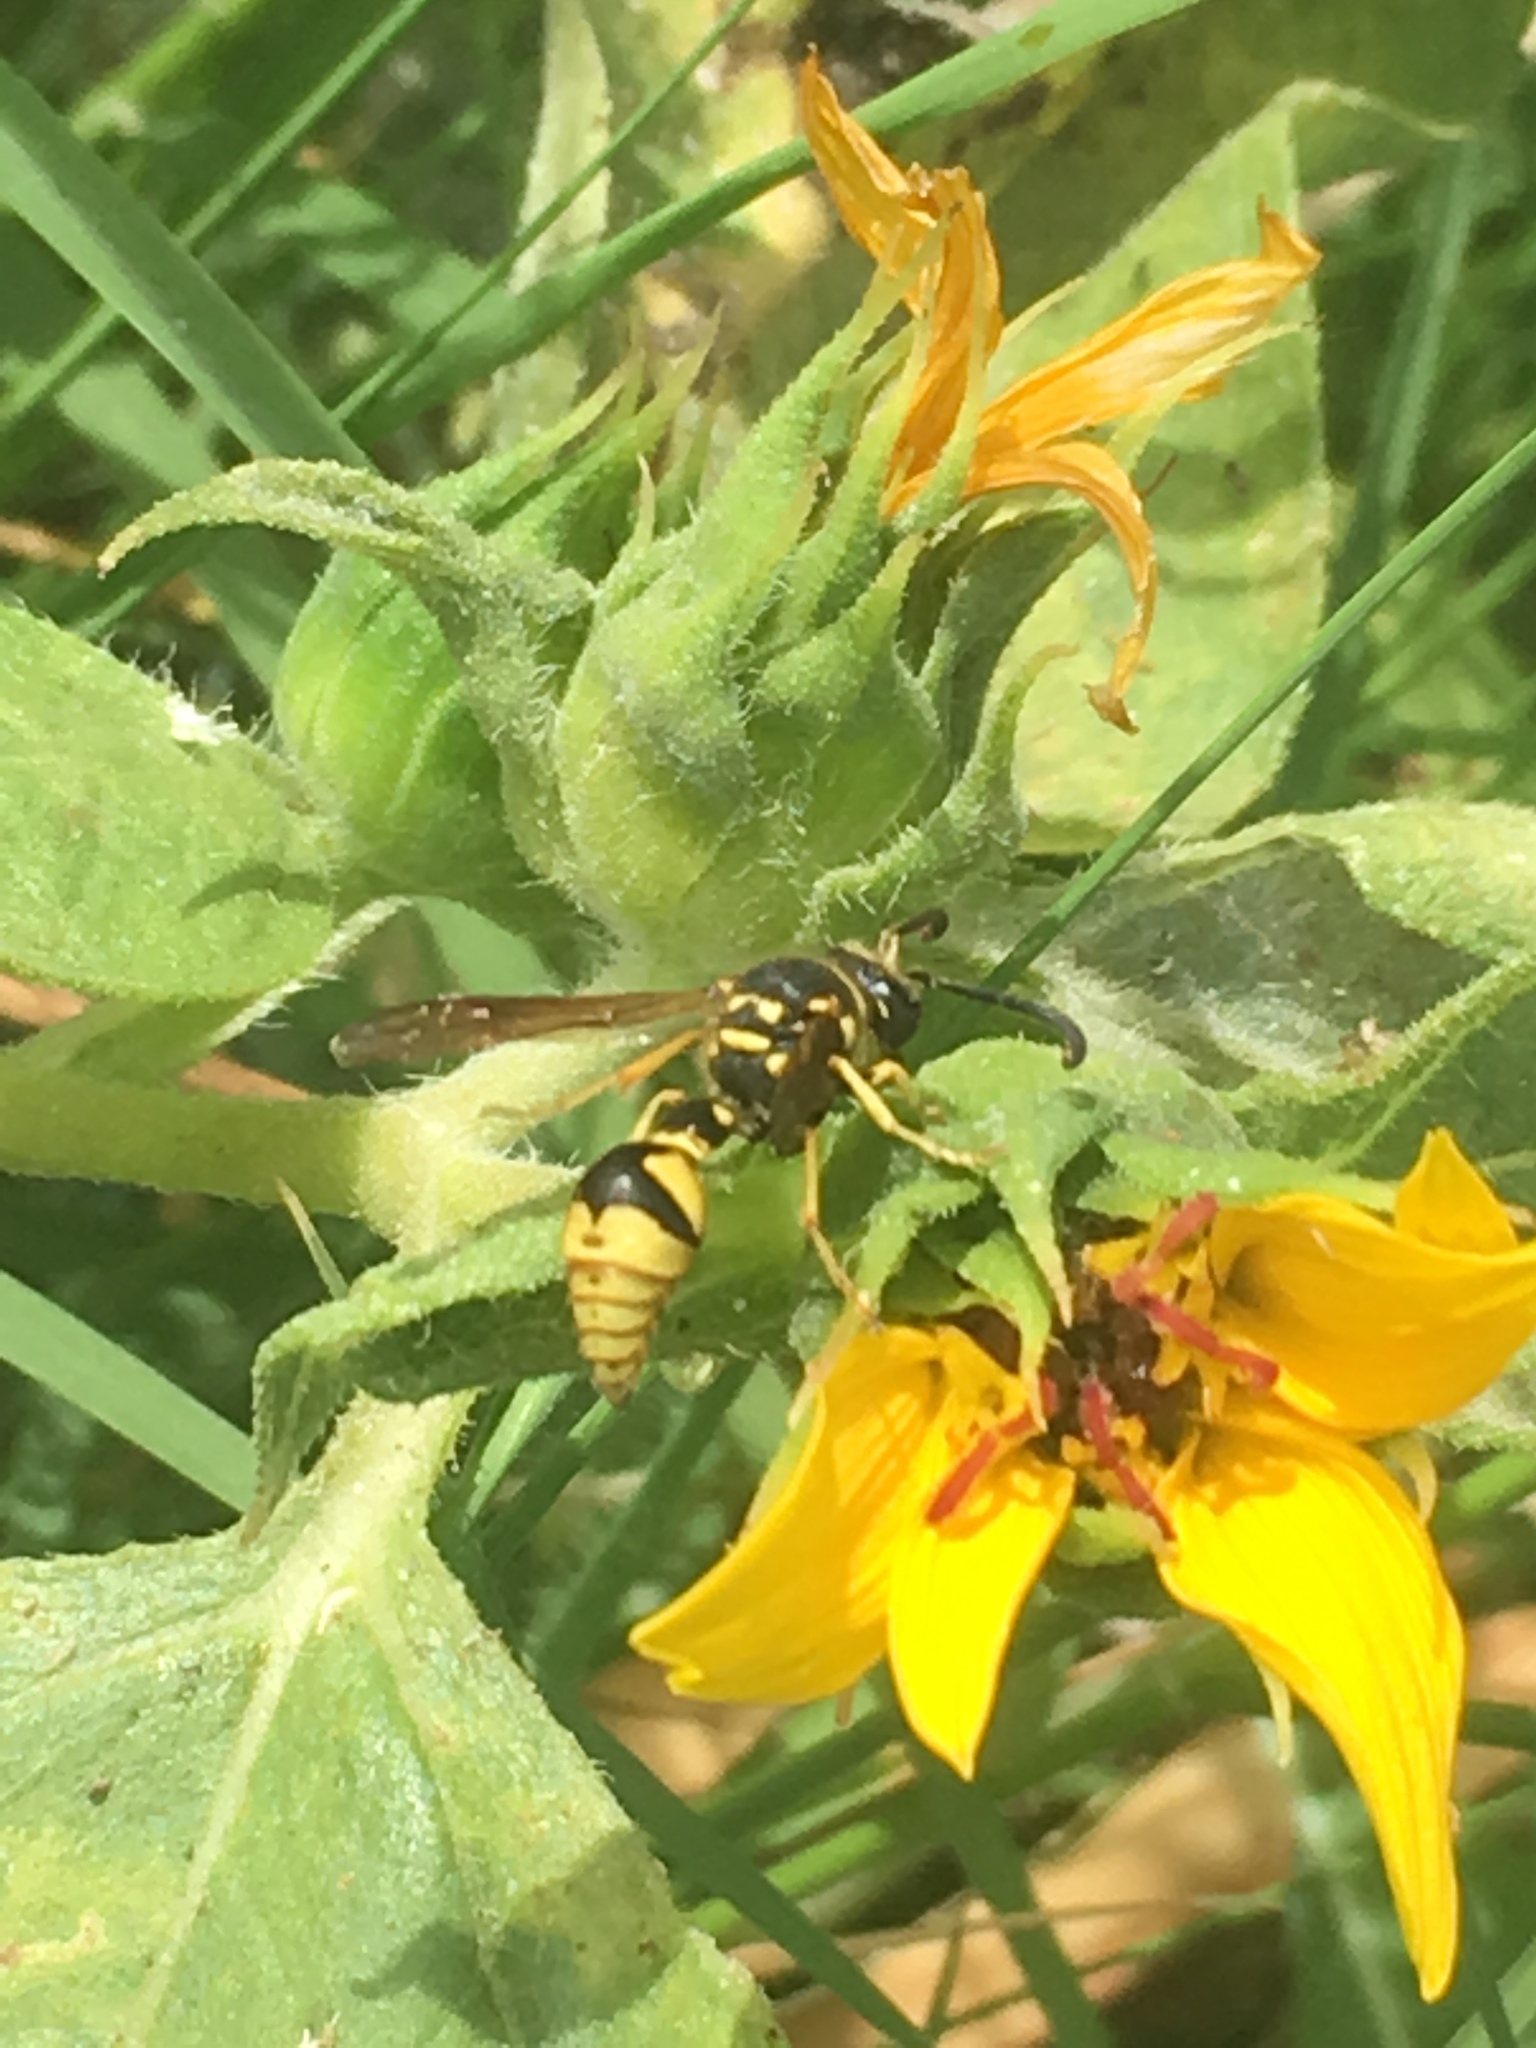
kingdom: Animalia
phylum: Arthropoda
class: Insecta
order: Hymenoptera
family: Vespidae
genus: Eumenes
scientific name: Eumenes crucifera
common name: Cross potter wasp
